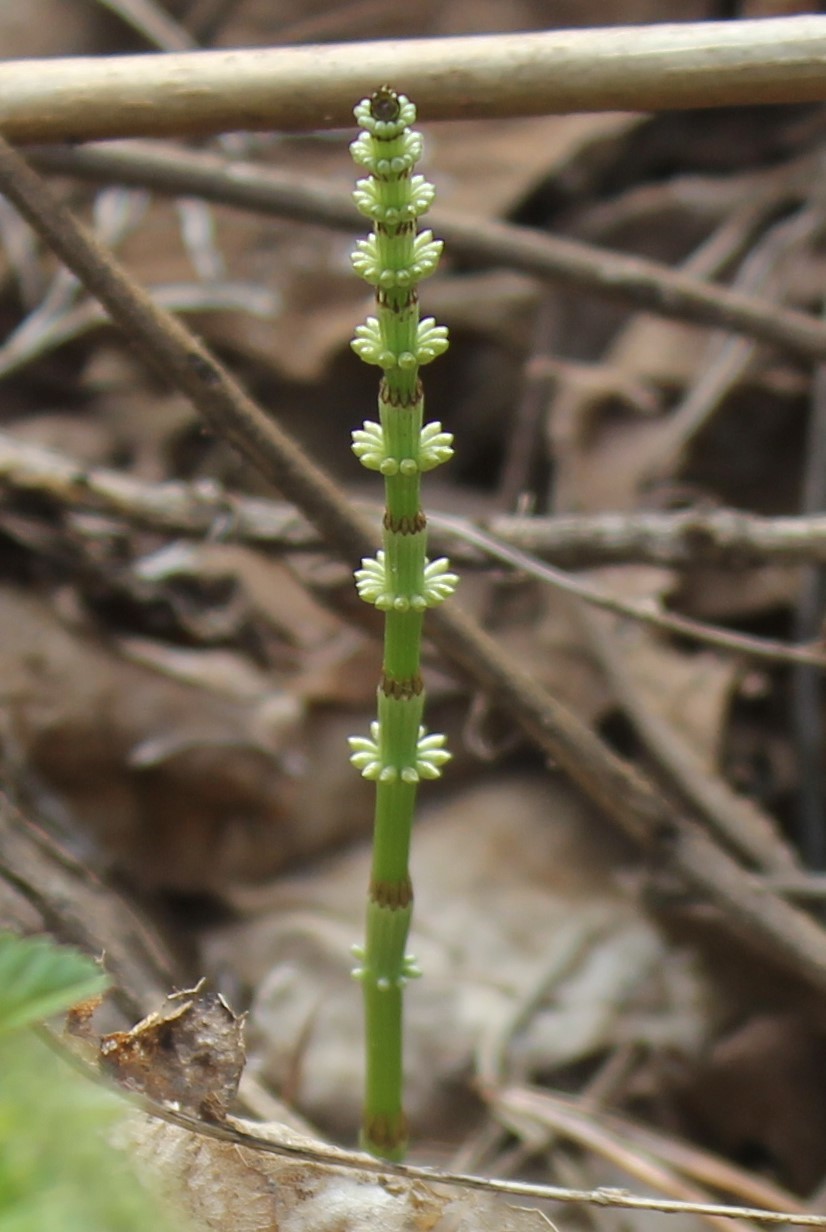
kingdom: Plantae
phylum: Tracheophyta
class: Polypodiopsida
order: Equisetales
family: Equisetaceae
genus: Equisetum
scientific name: Equisetum pratense
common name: Meadow horsetail
